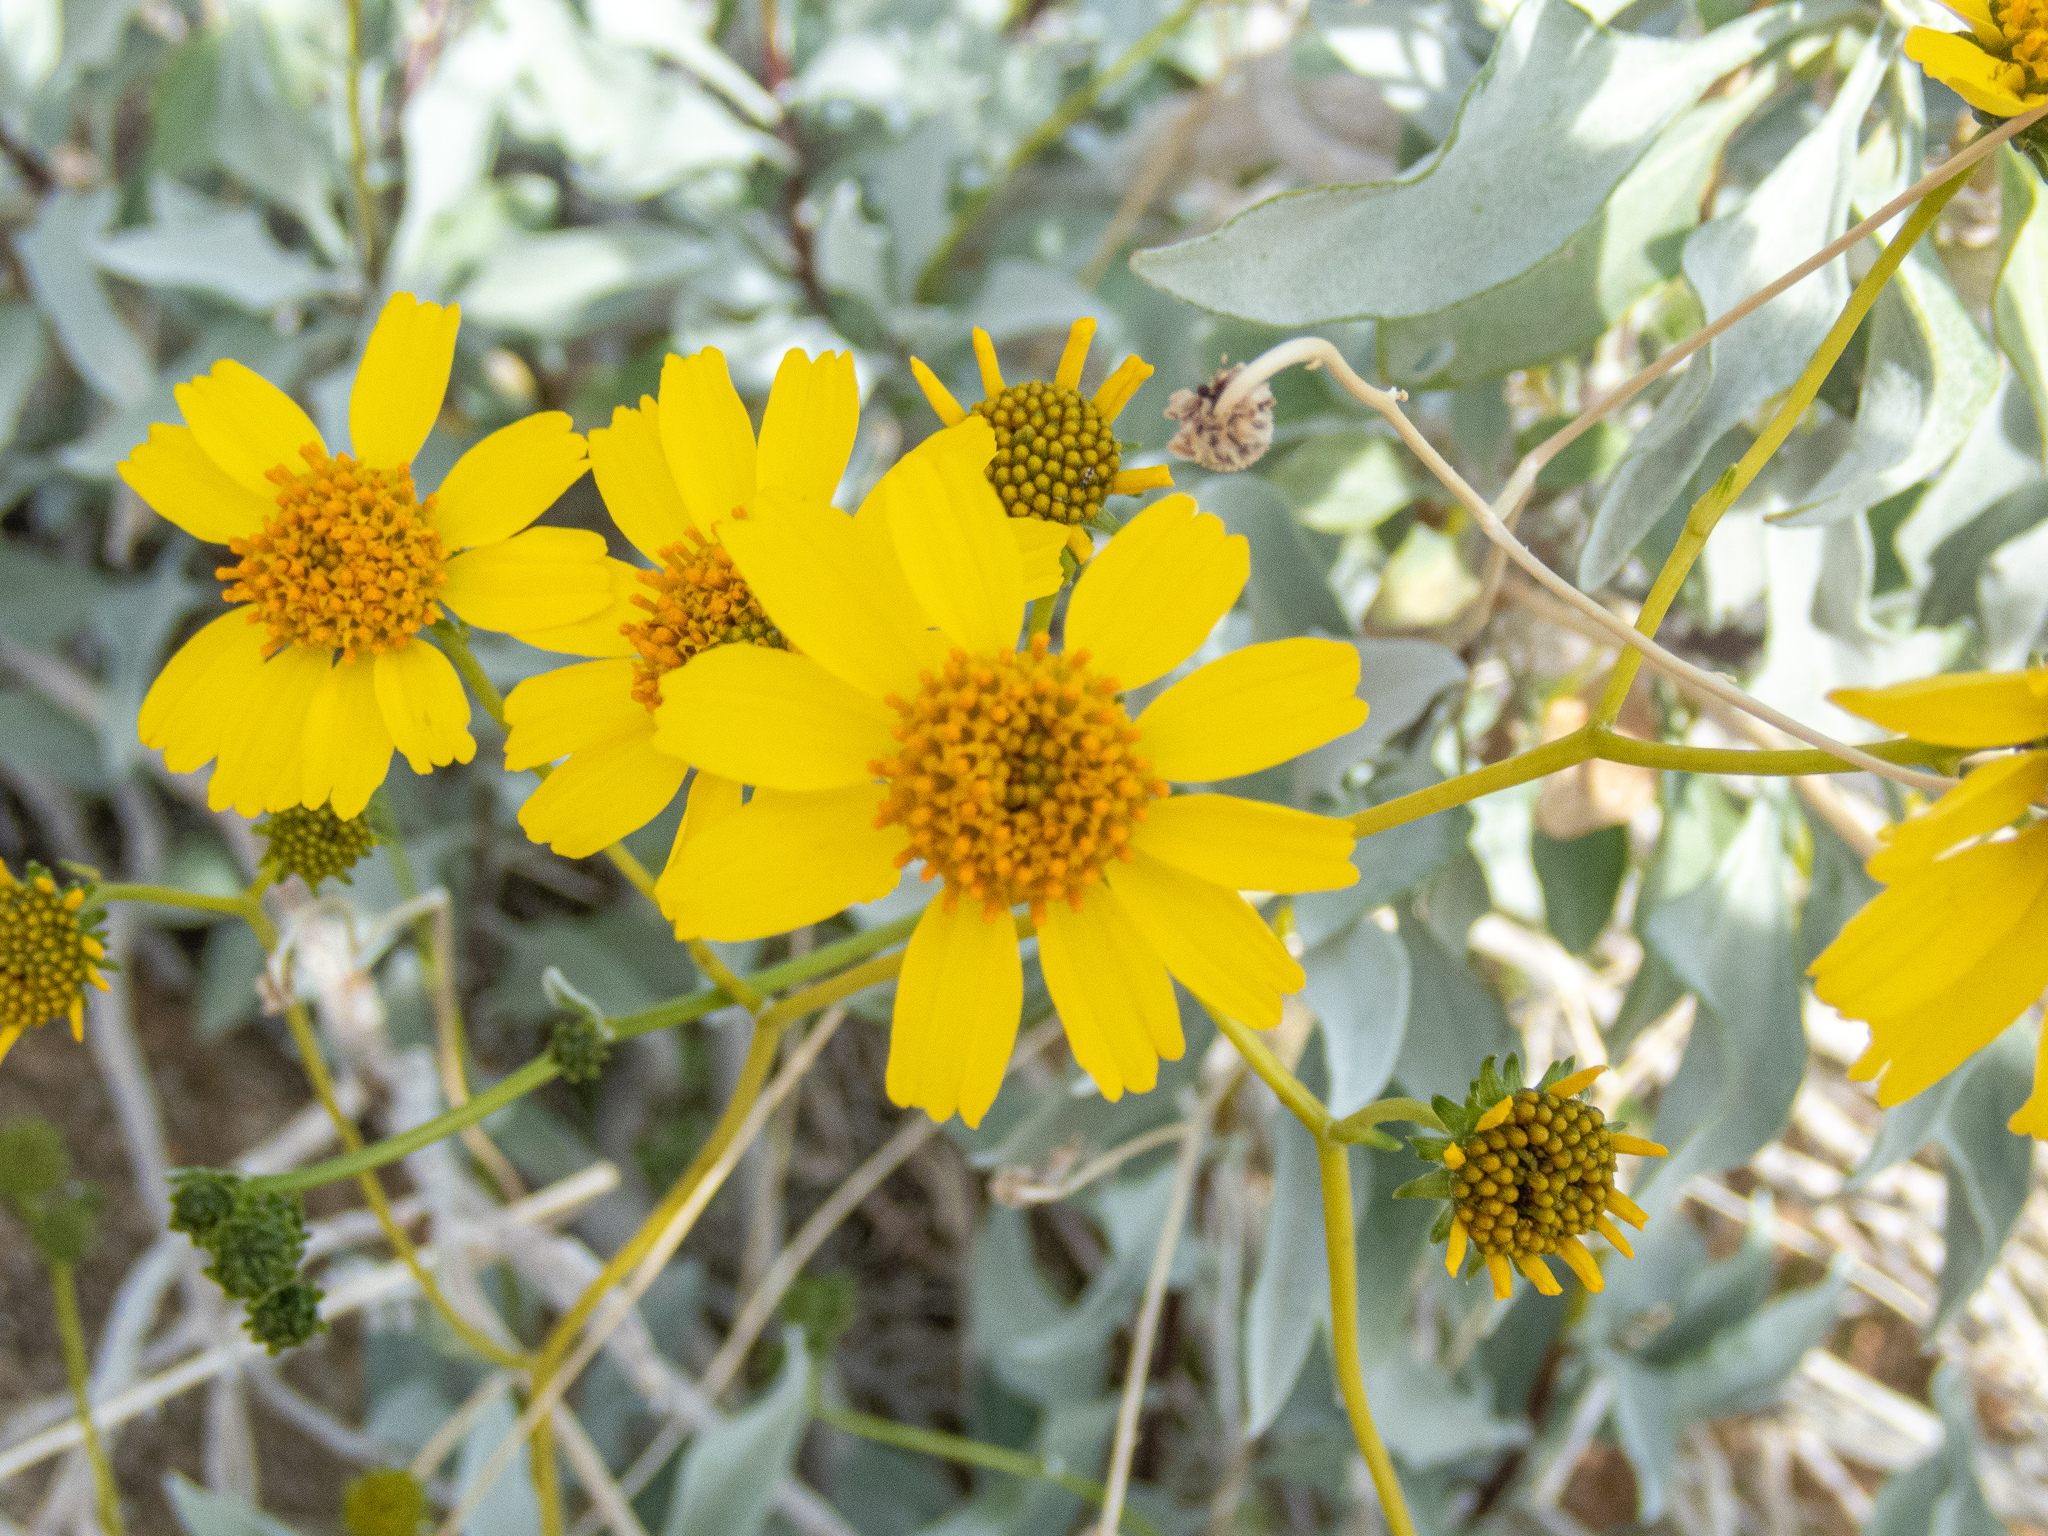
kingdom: Plantae
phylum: Tracheophyta
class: Magnoliopsida
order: Asterales
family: Asteraceae
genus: Encelia
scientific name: Encelia farinosa
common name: Brittlebush
